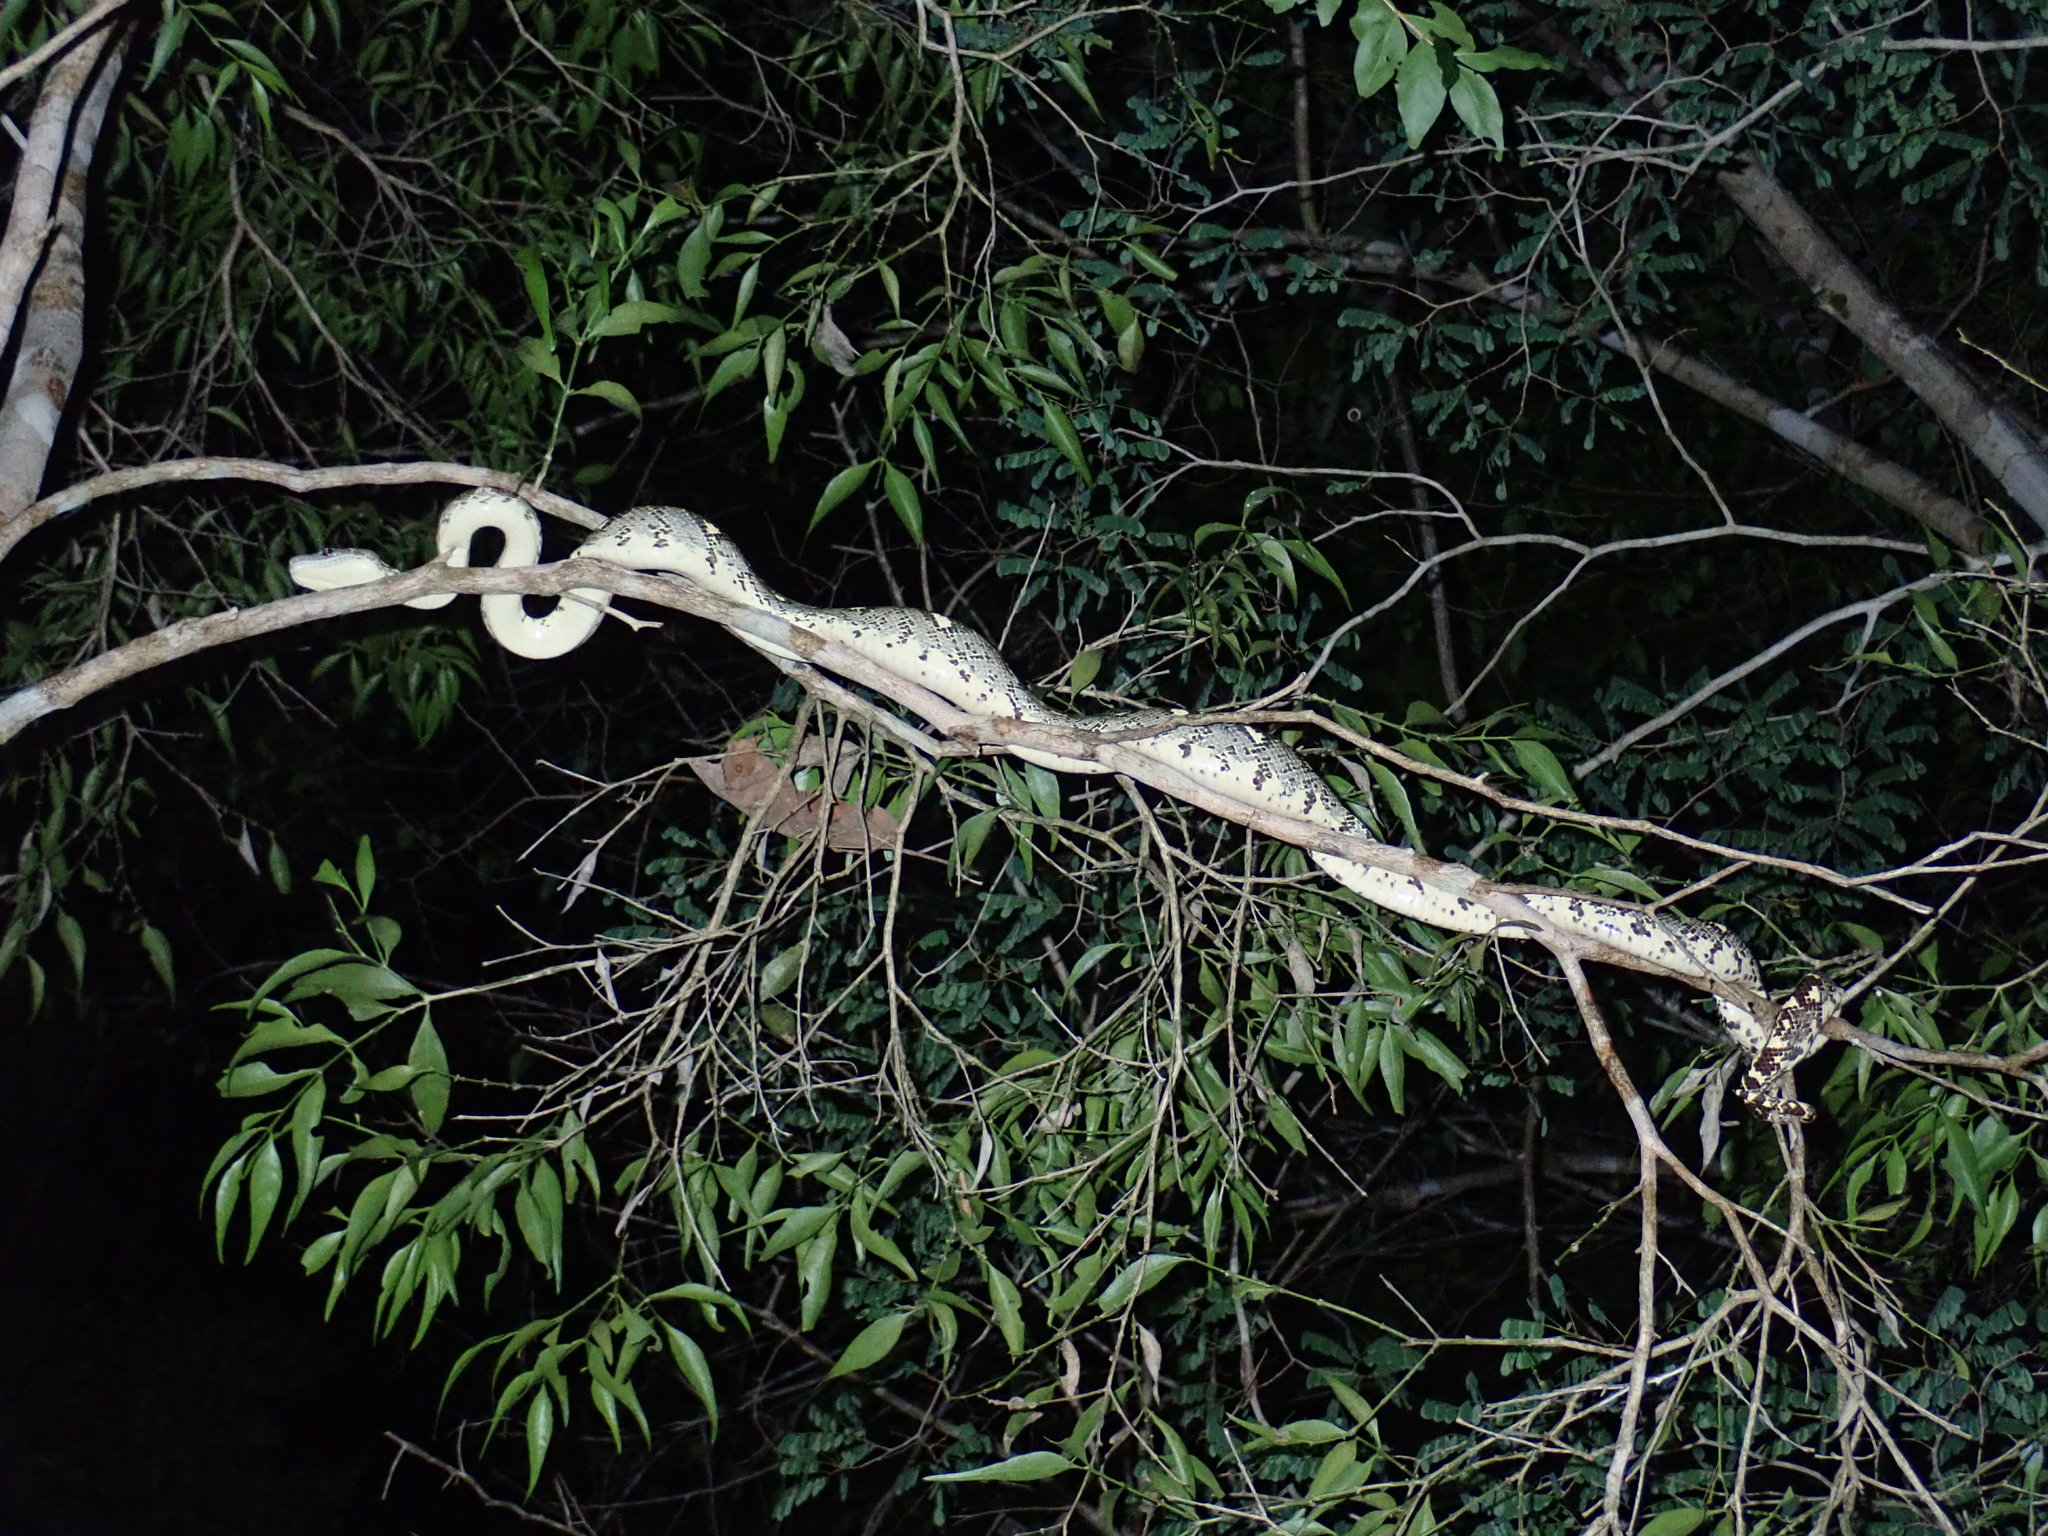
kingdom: Animalia
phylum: Chordata
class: Squamata
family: Boidae
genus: Sanzinia
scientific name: Sanzinia volontany
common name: Nosy komba tree boa
